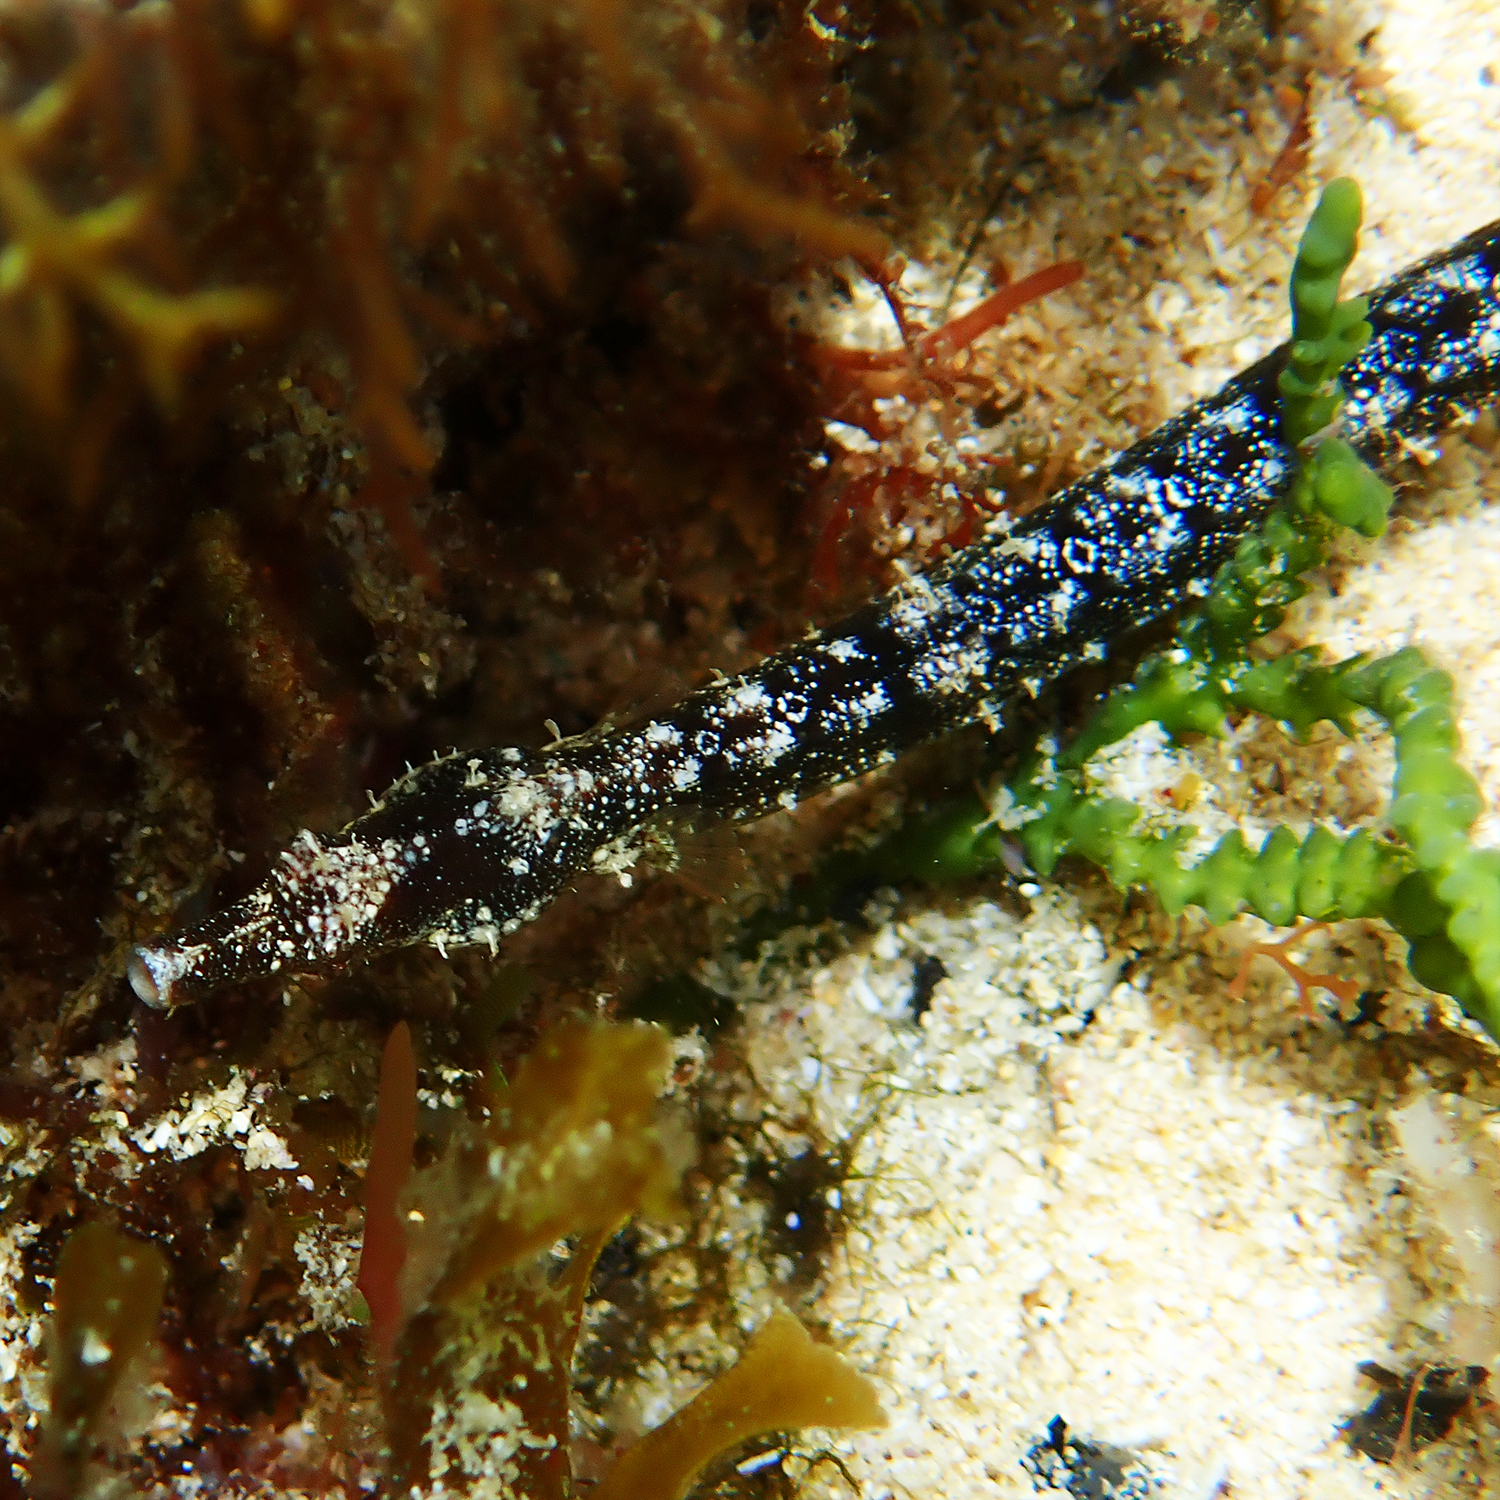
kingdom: Animalia
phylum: Chordata
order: Syngnathiformes
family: Syngnathidae
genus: Halicampus
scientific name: Halicampus boothae
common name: Booth's pipefish
